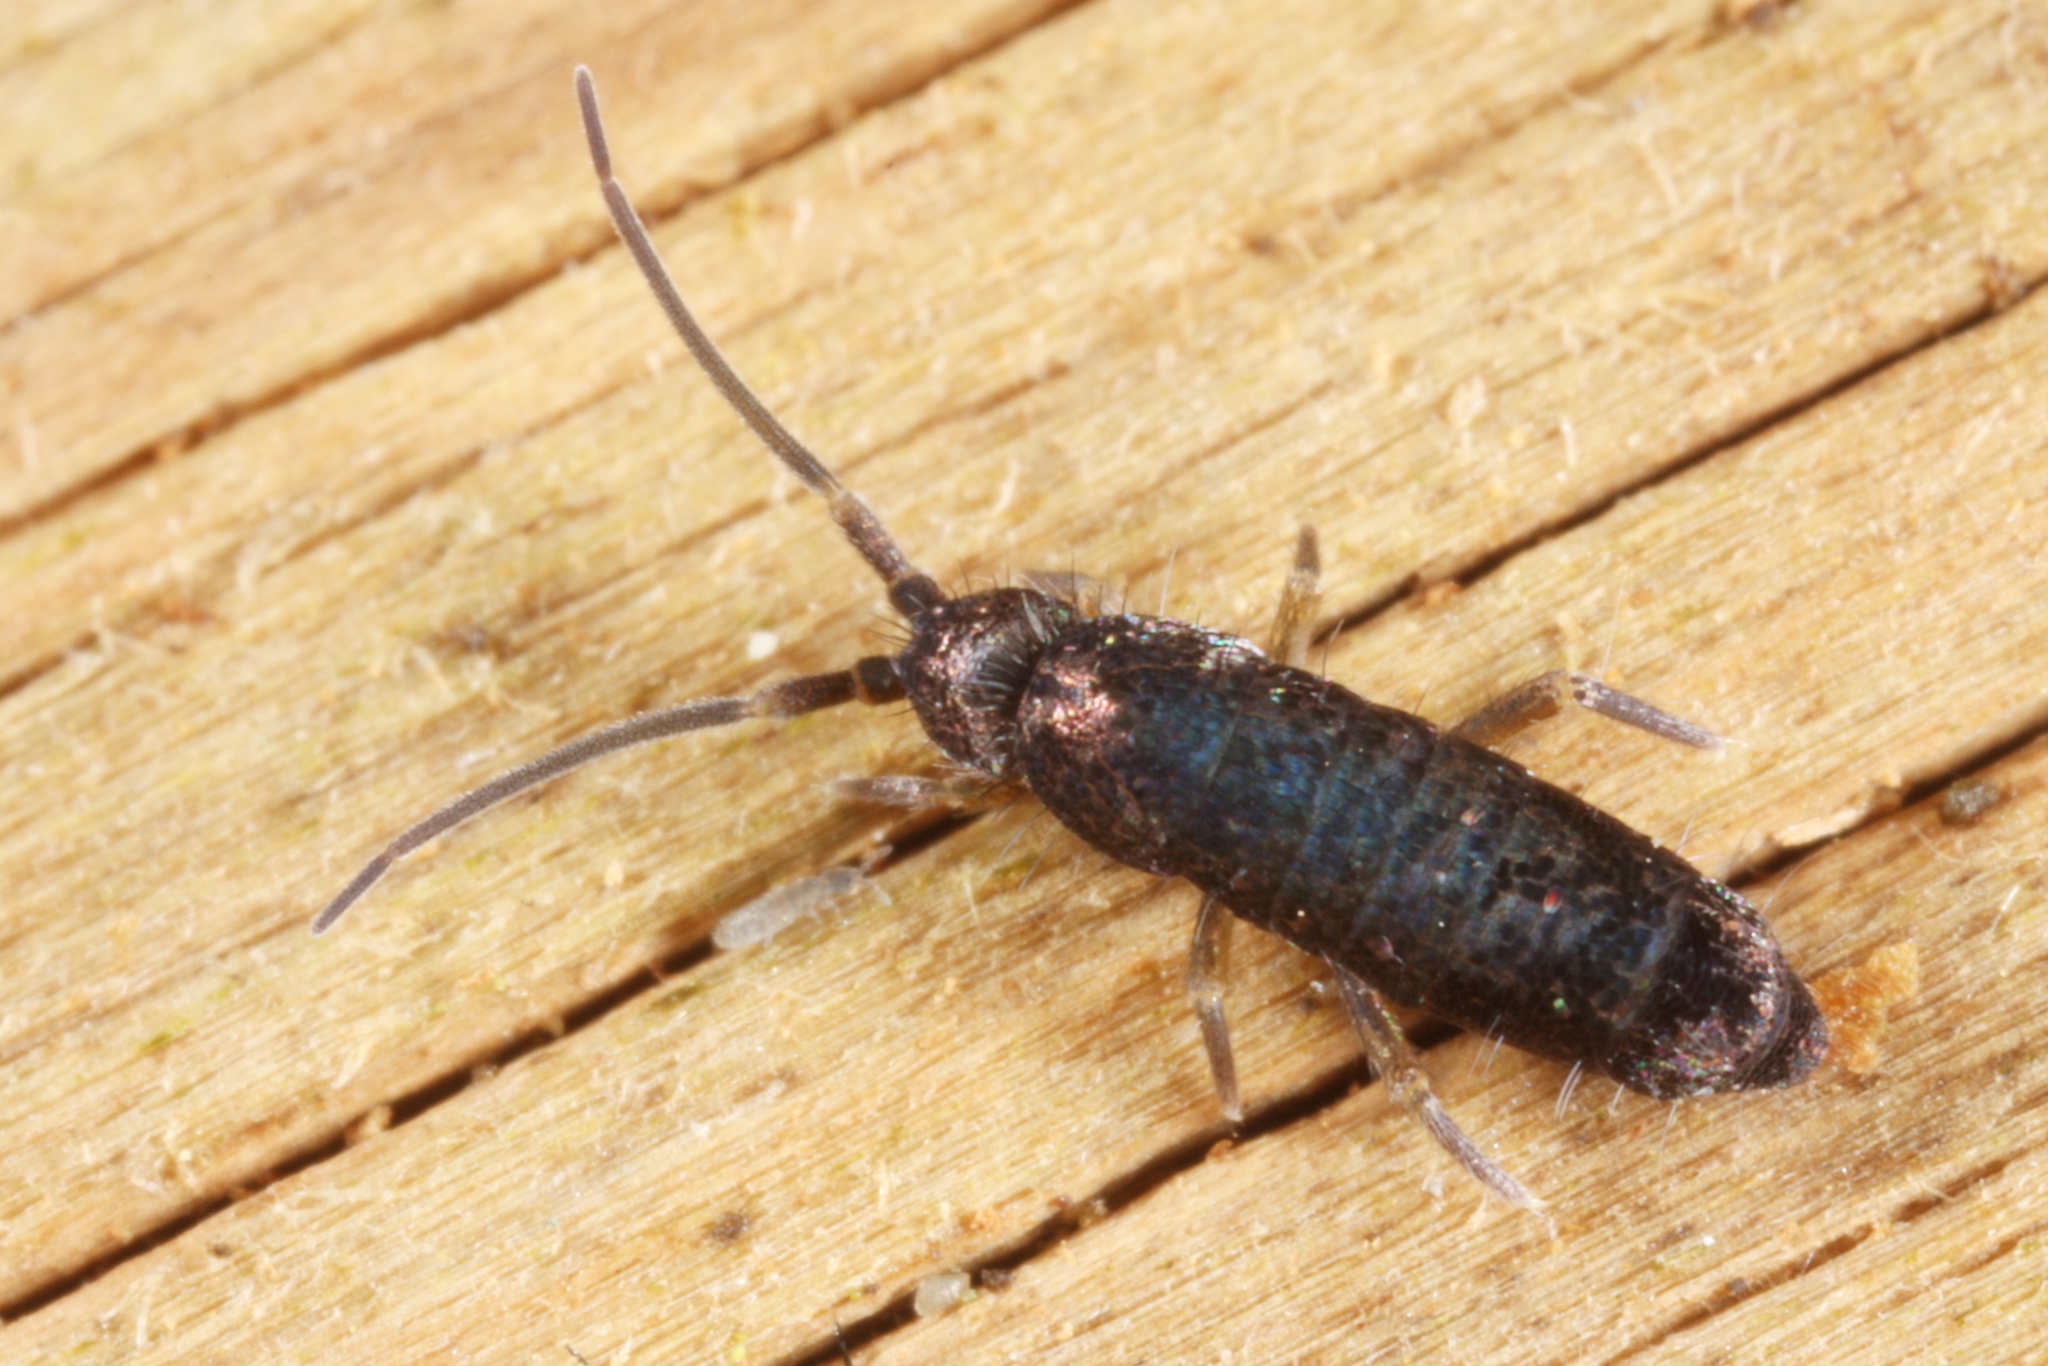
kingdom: Animalia
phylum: Arthropoda
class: Collembola
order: Entomobryomorpha
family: Tomoceridae
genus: Tomocerus
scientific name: Tomocerus minor
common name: Springtail
